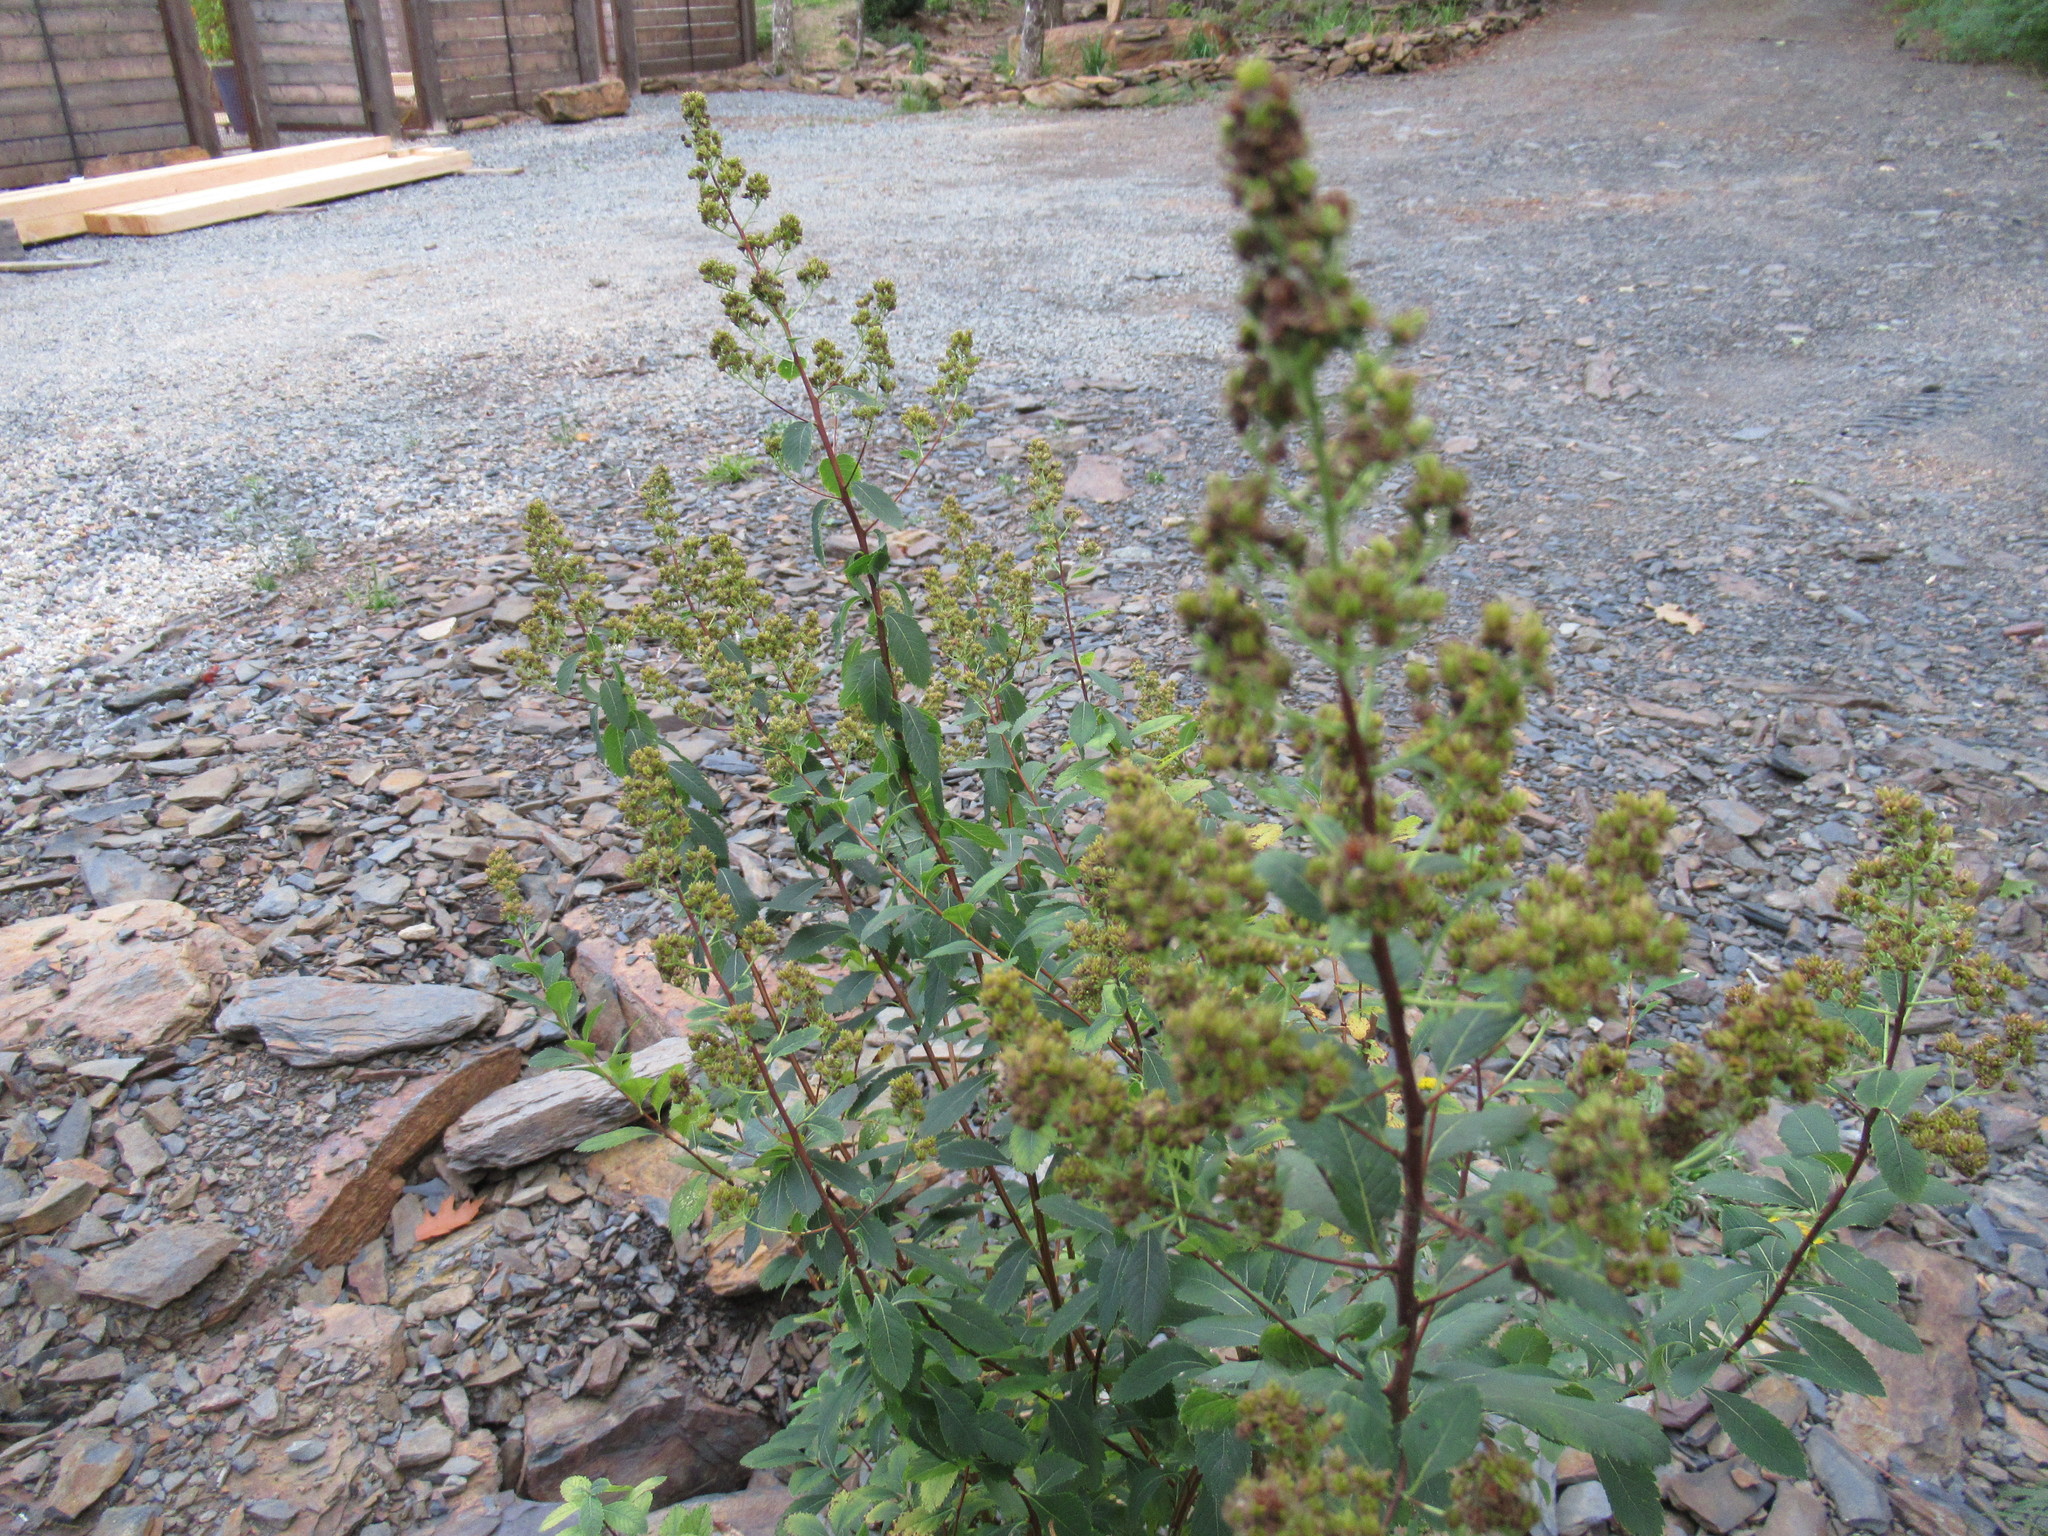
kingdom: Plantae
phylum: Tracheophyta
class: Magnoliopsida
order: Rosales
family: Rosaceae
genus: Spiraea
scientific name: Spiraea alba
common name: Pale bridewort
